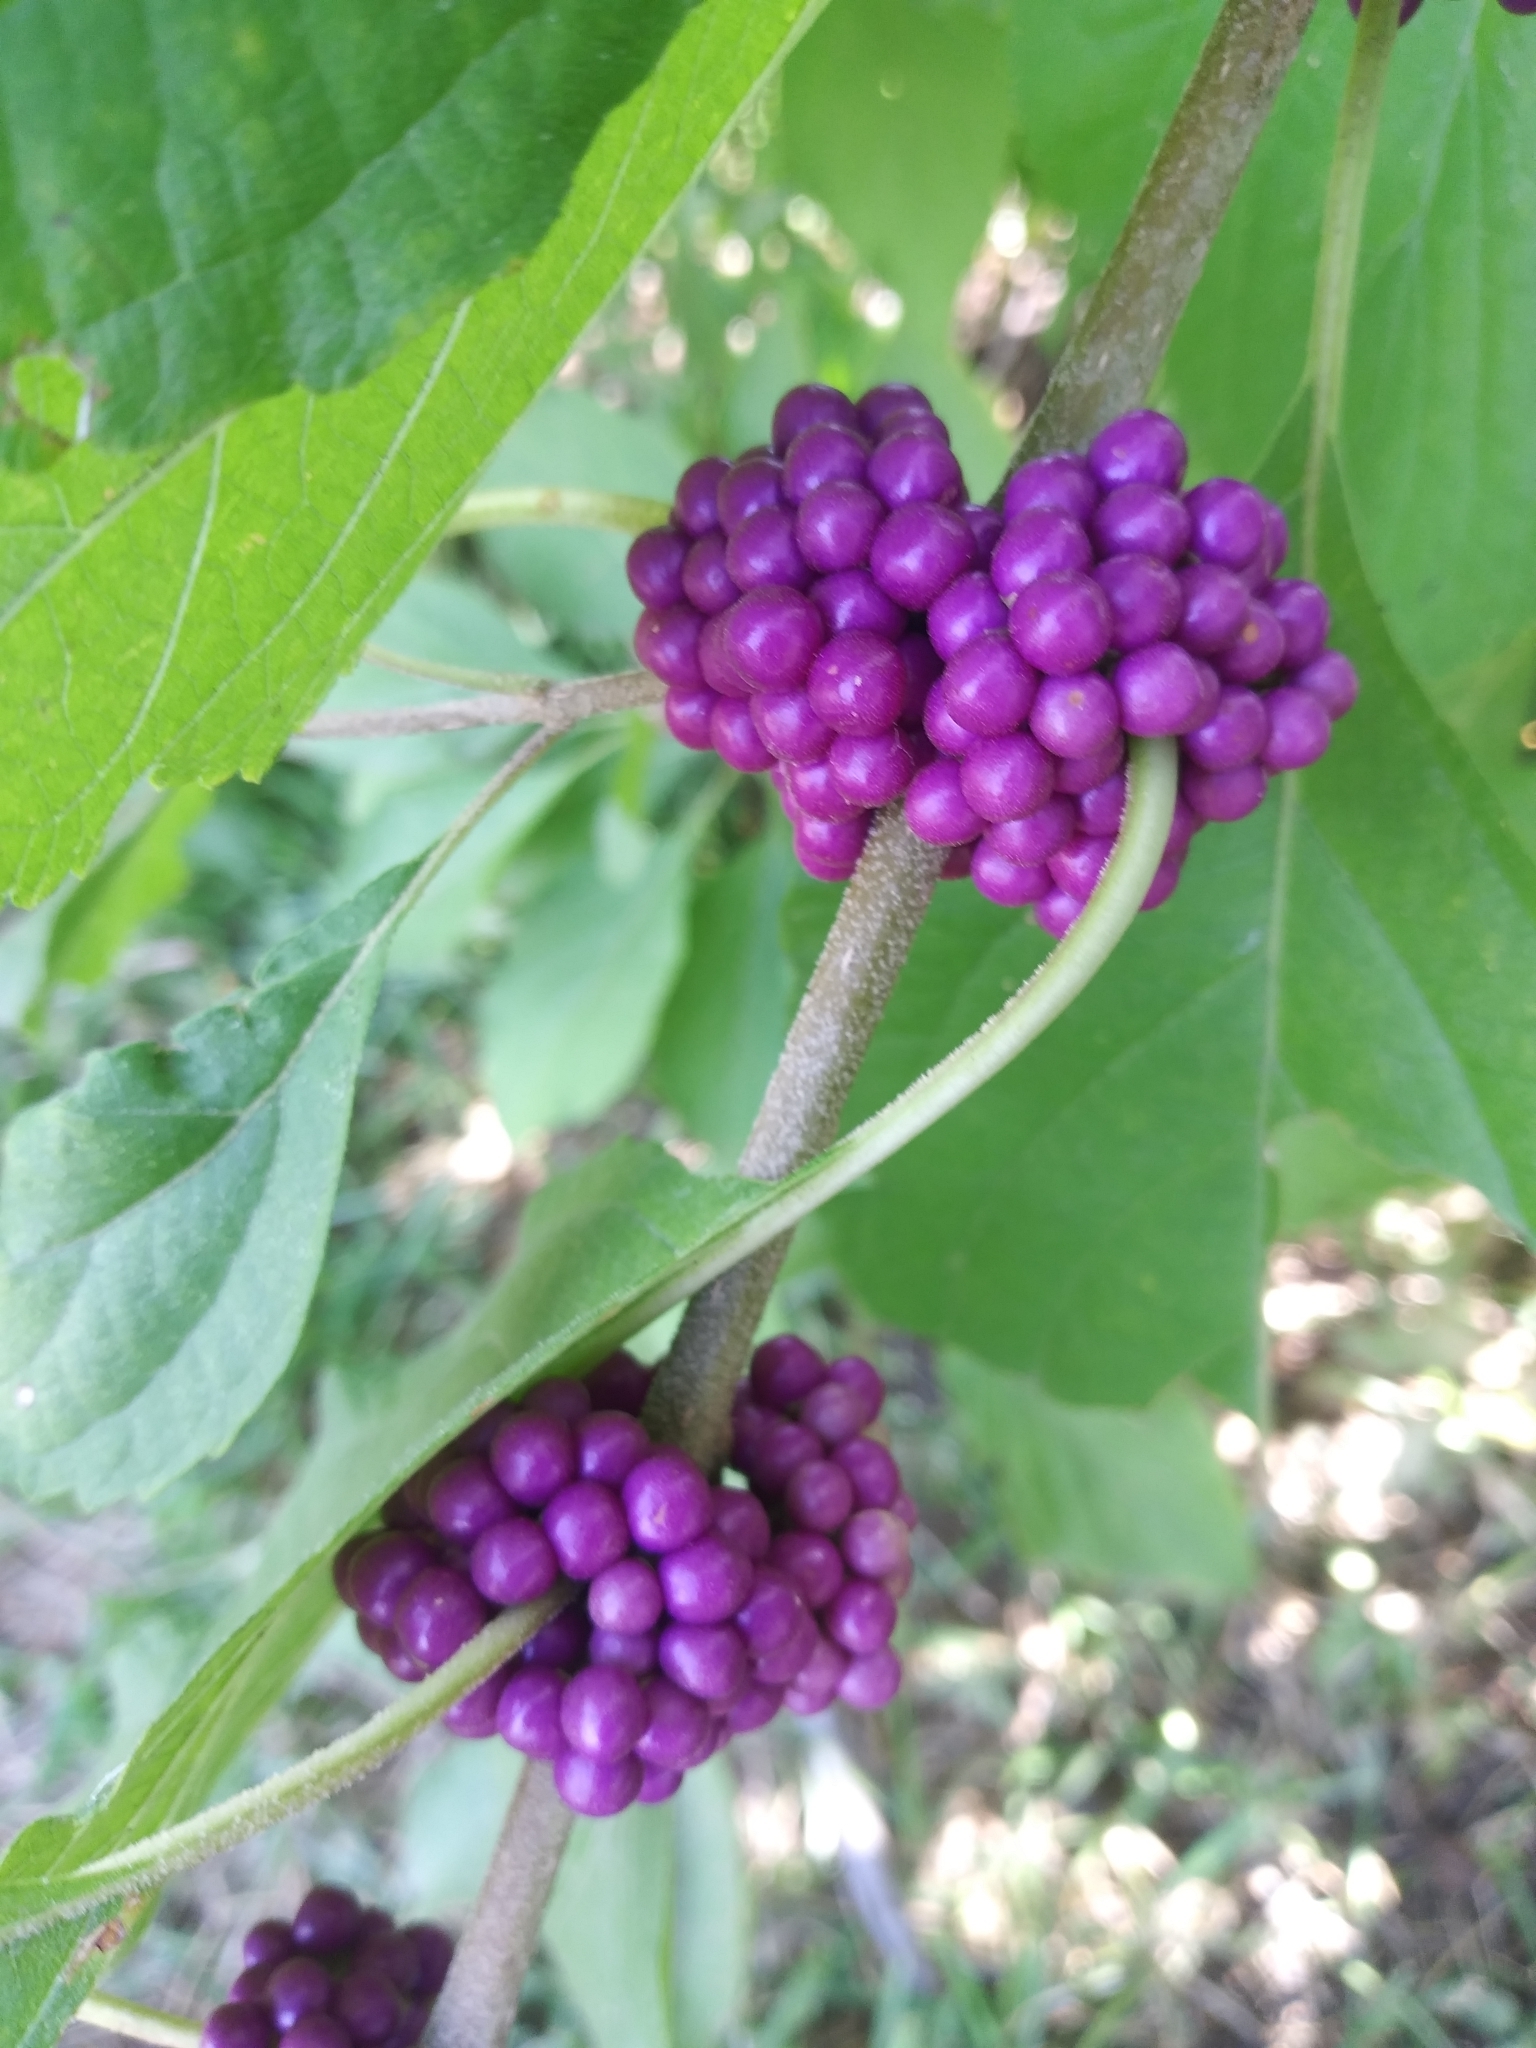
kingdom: Plantae
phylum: Tracheophyta
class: Magnoliopsida
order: Lamiales
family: Lamiaceae
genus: Callicarpa
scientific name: Callicarpa americana
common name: American beautyberry
